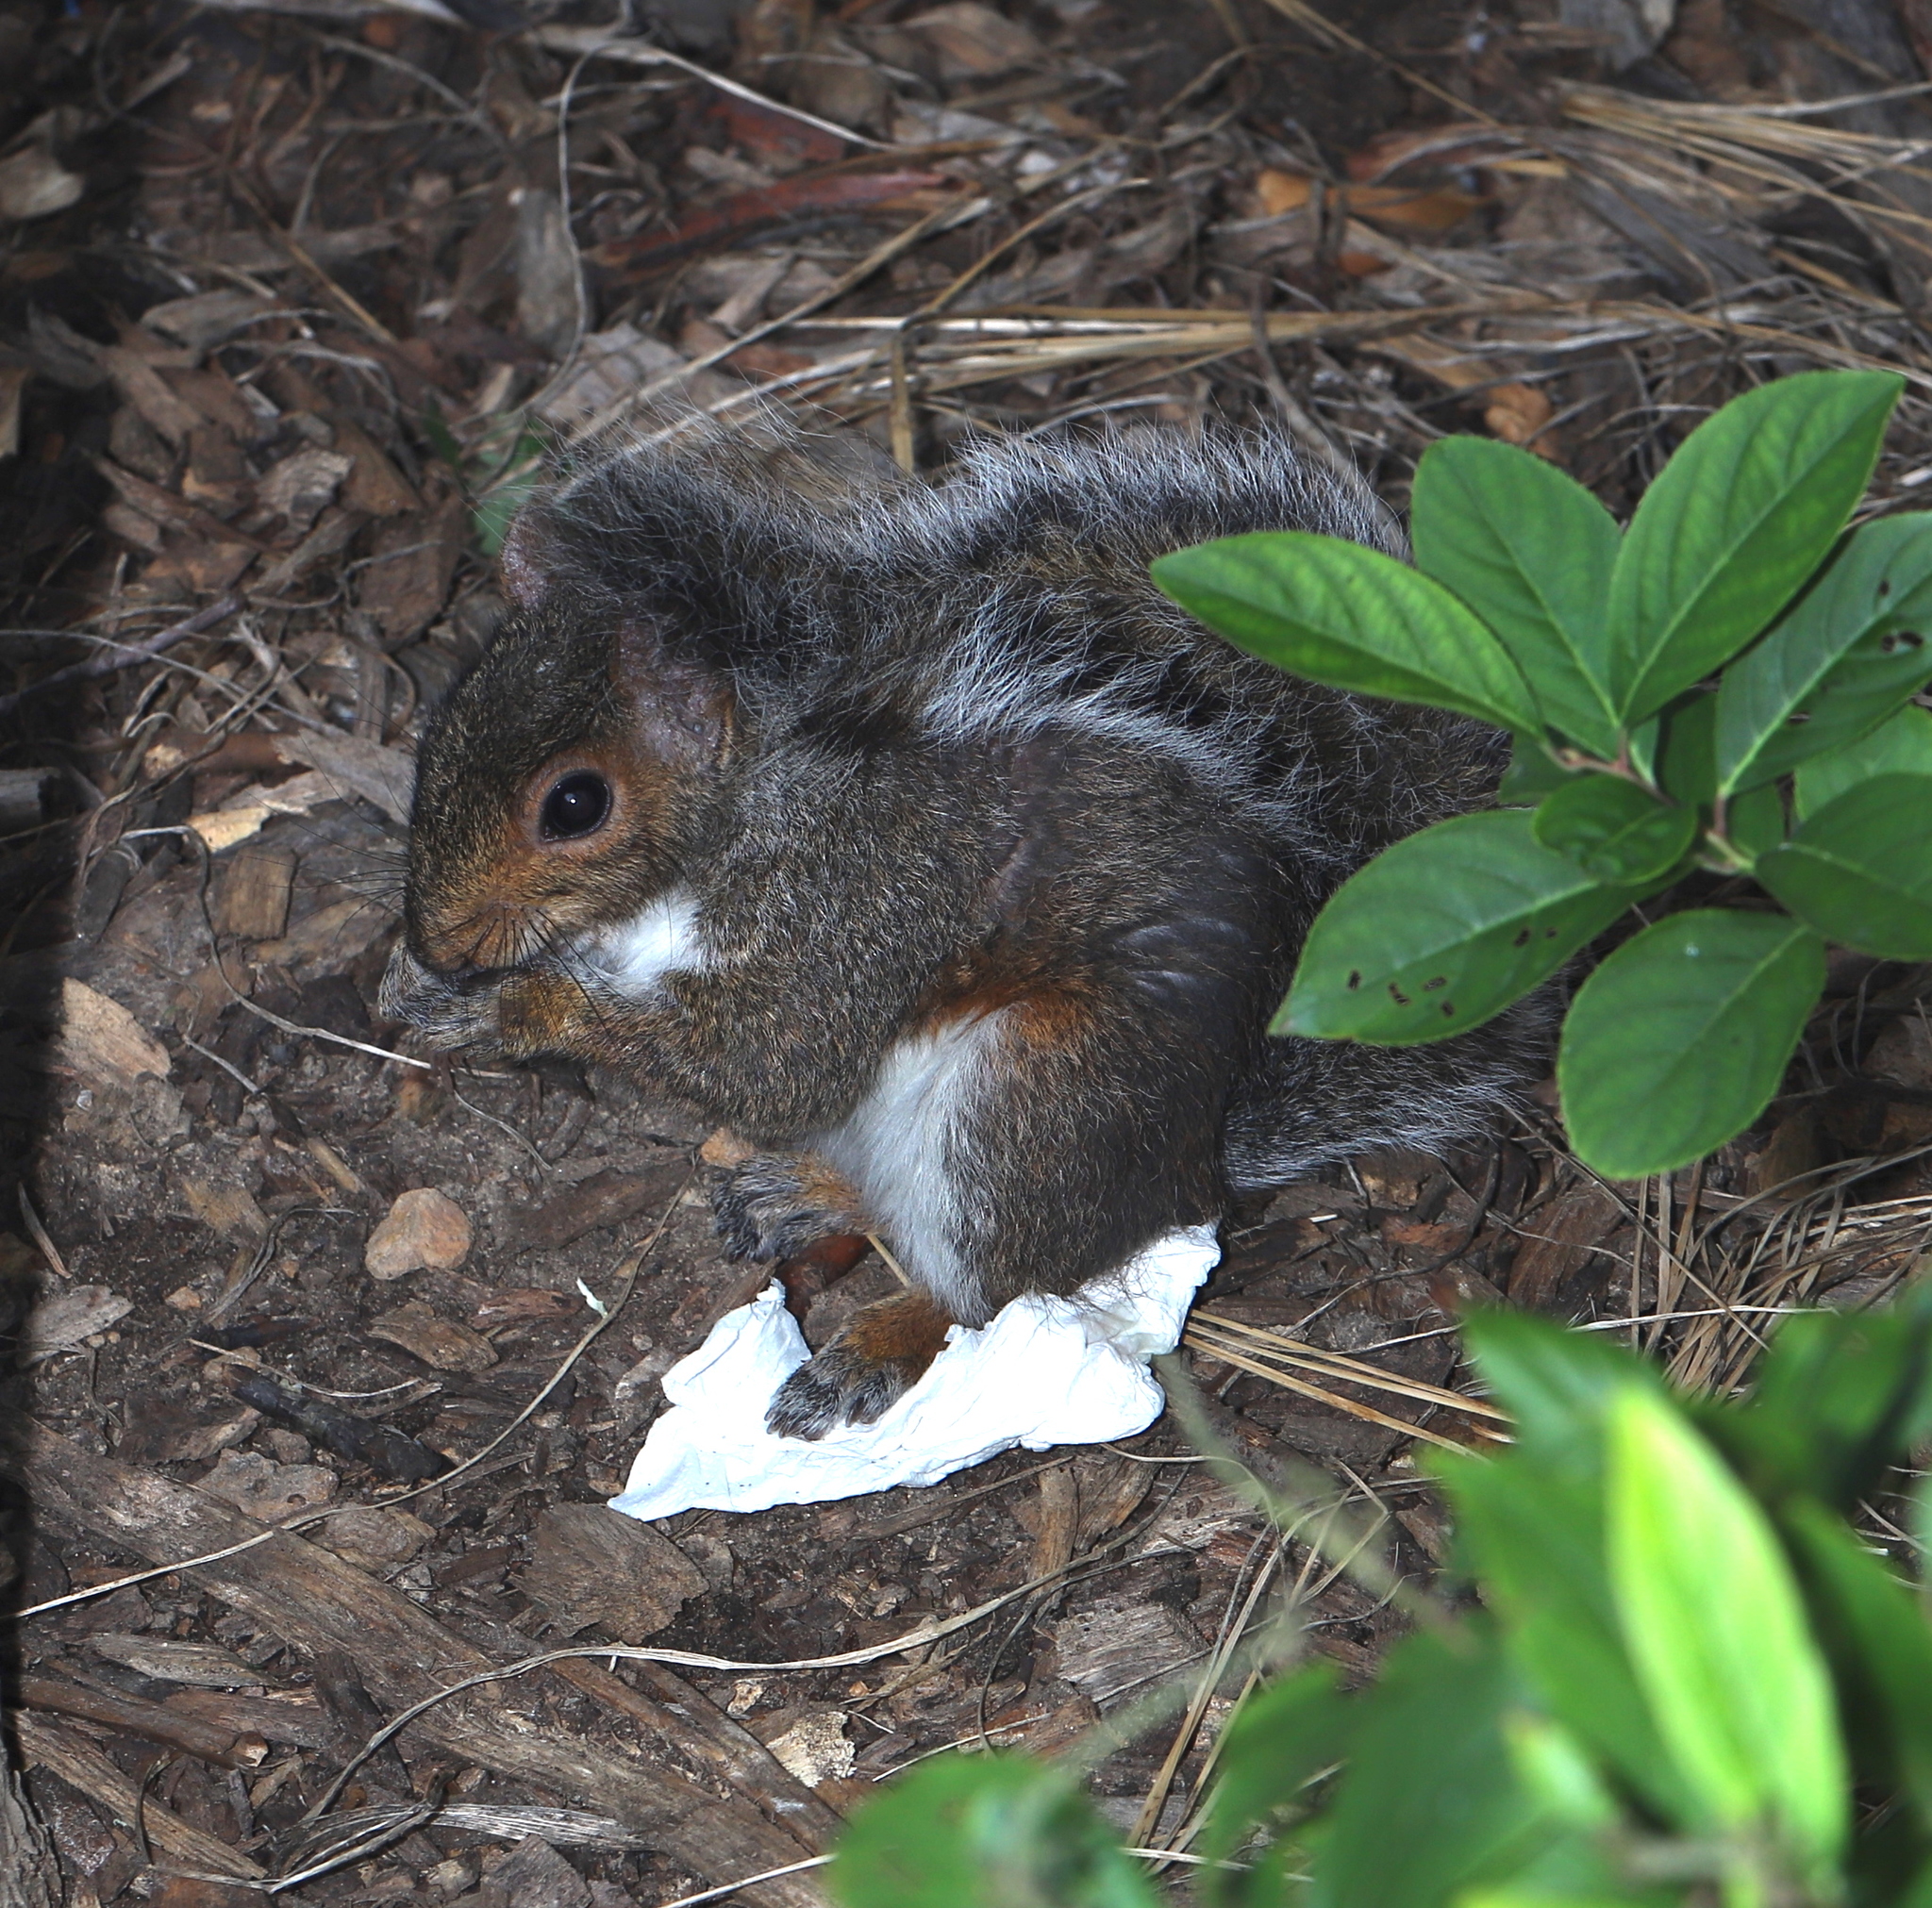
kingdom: Animalia
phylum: Chordata
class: Mammalia
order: Rodentia
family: Sciuridae
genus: Sciurus
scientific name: Sciurus carolinensis
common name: Eastern gray squirrel
